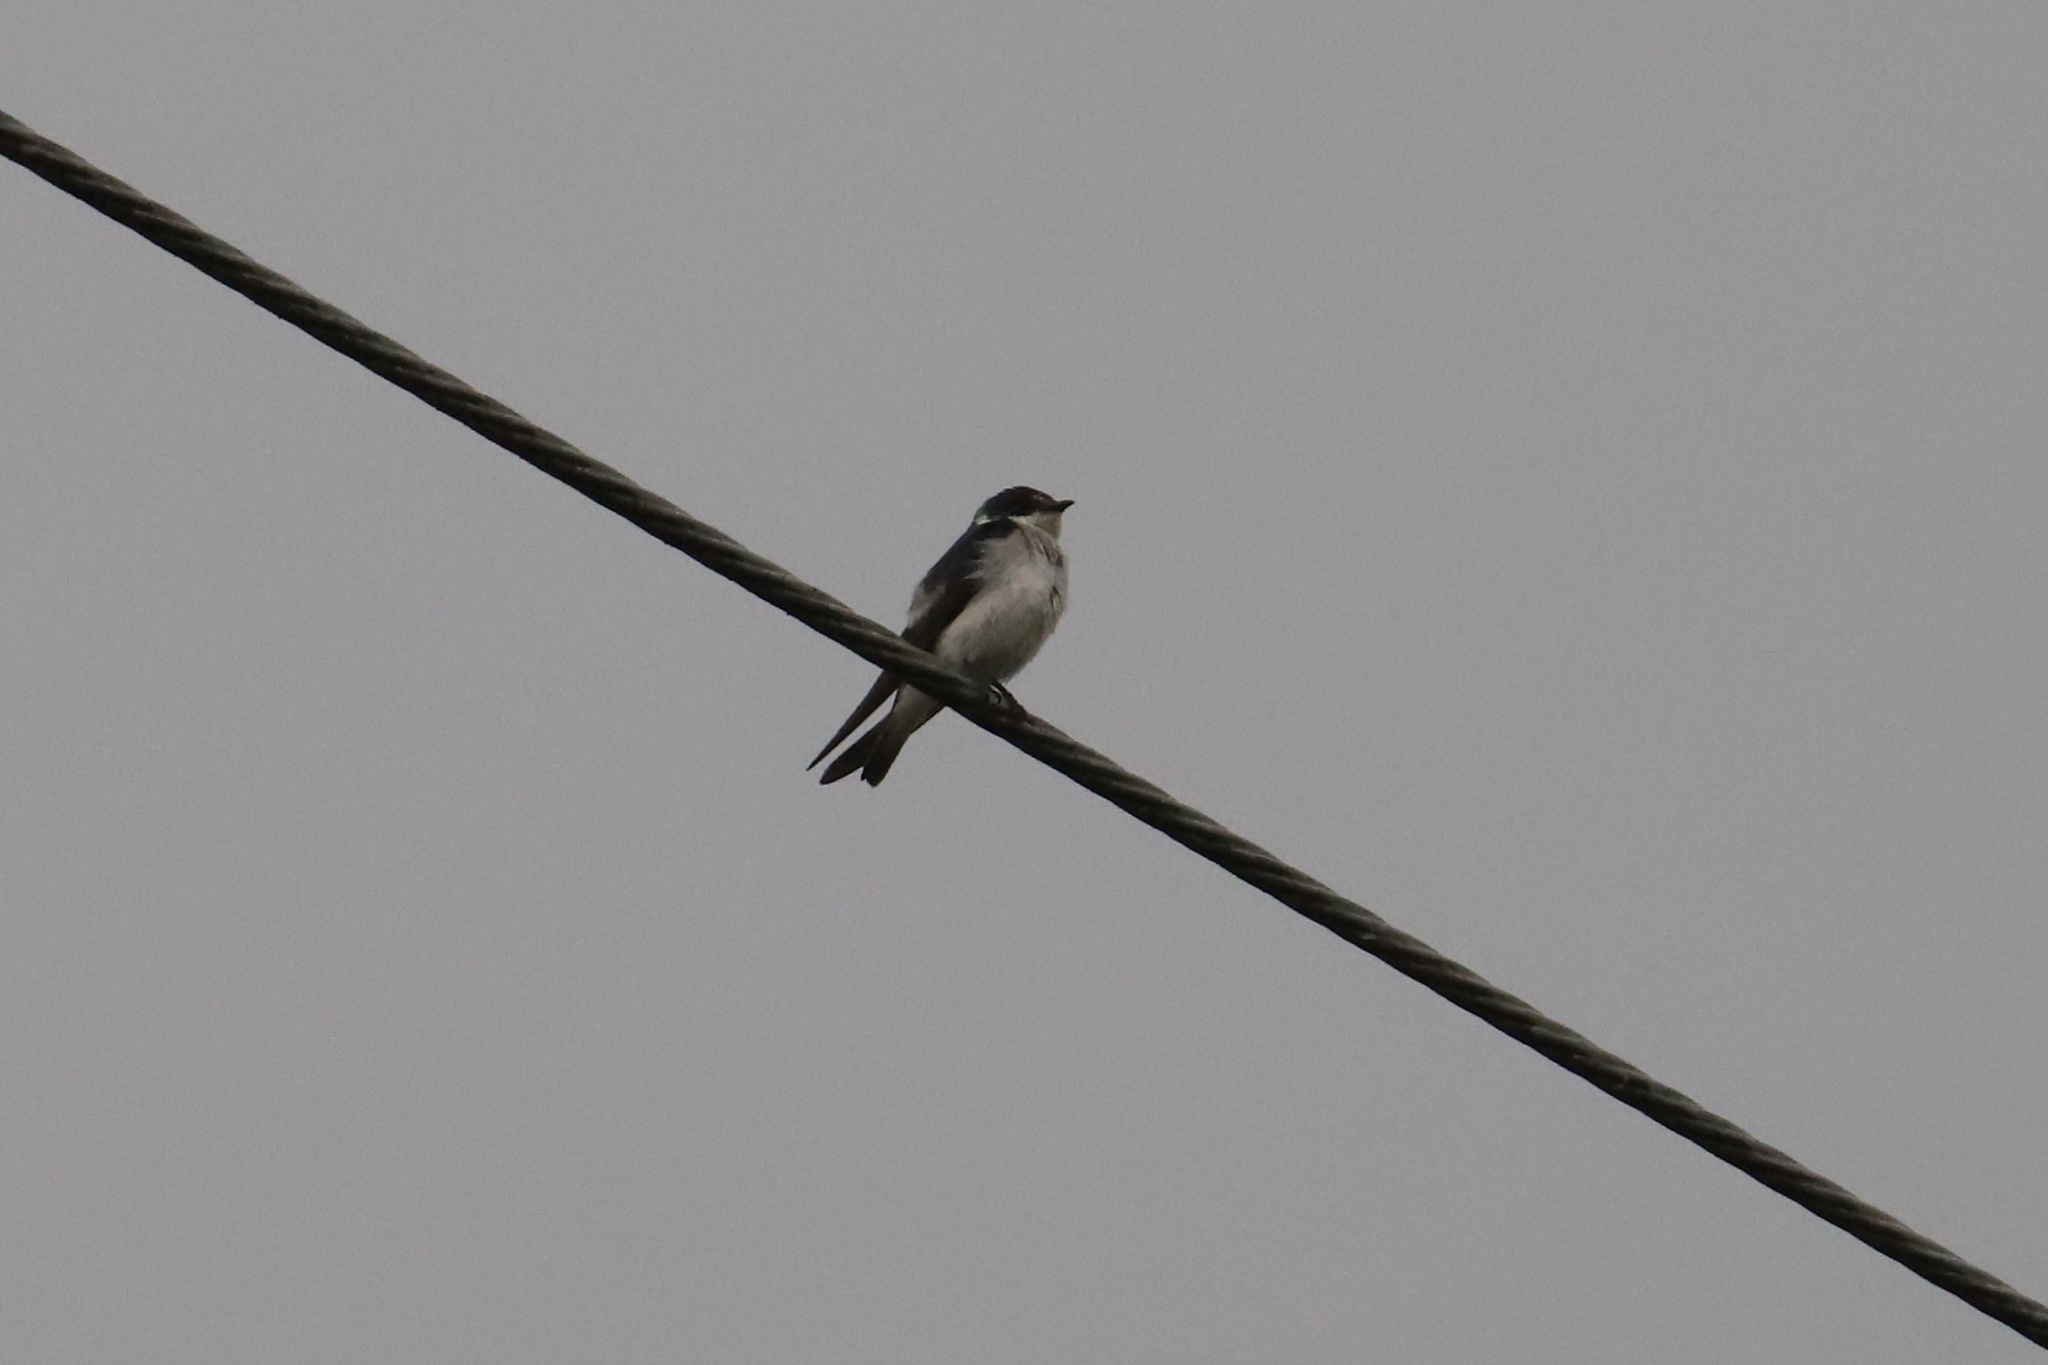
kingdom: Animalia
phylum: Chordata
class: Aves
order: Passeriformes
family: Hirundinidae
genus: Tachycineta
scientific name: Tachycineta albilinea
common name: Mangrove swallow
